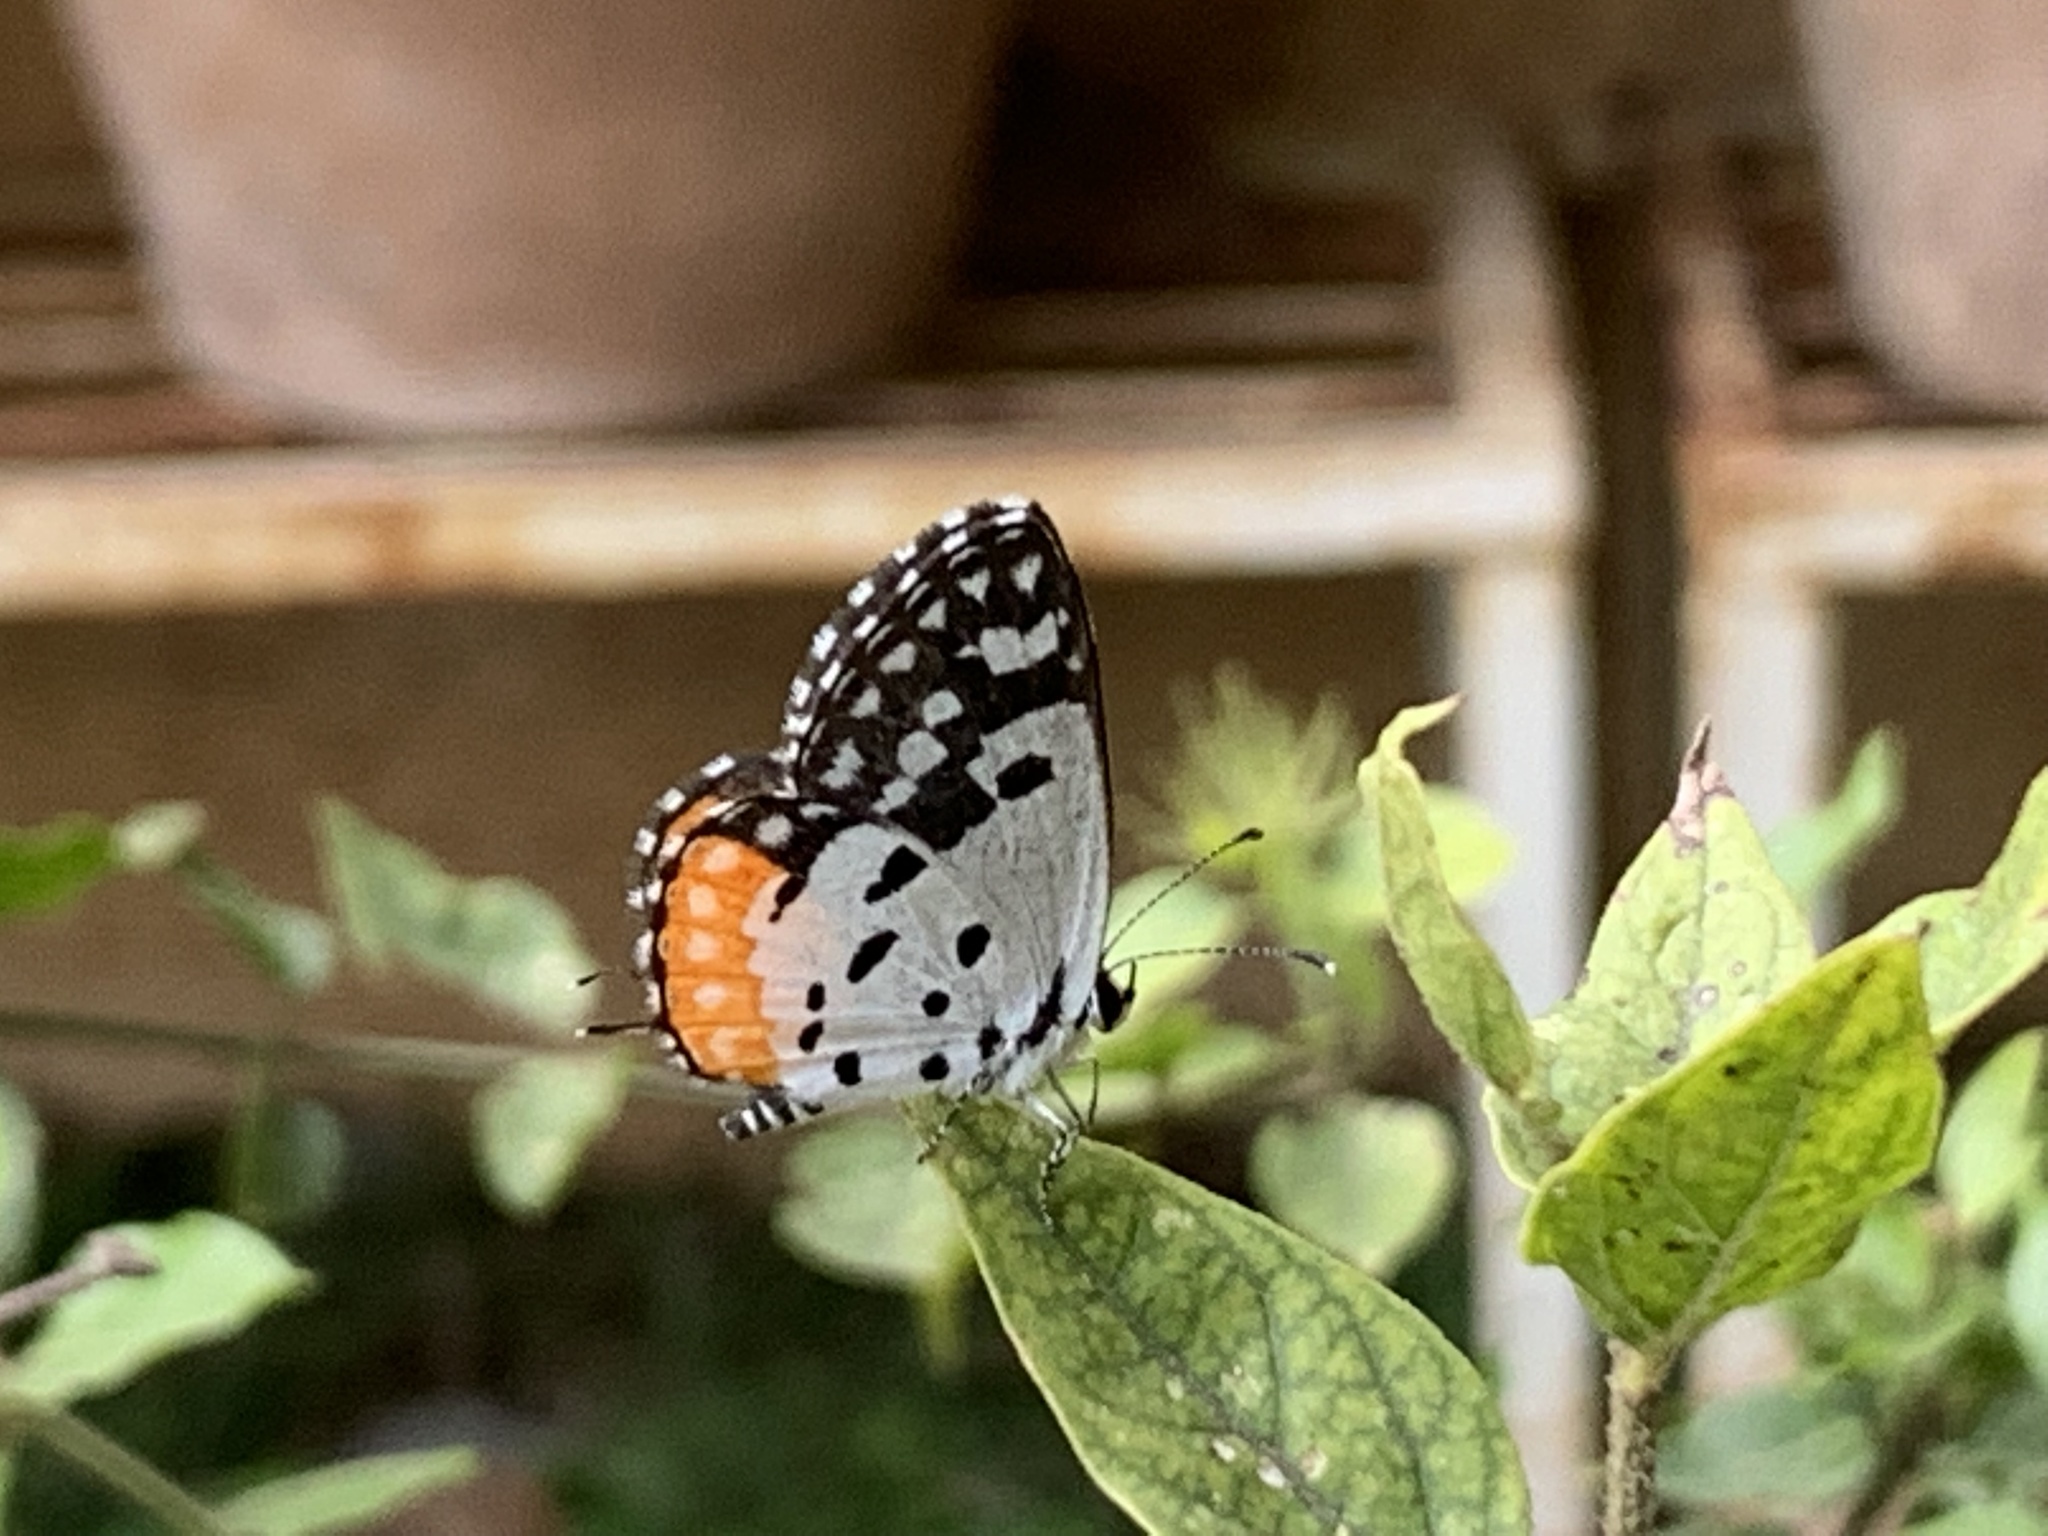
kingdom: Animalia
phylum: Arthropoda
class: Insecta
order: Lepidoptera
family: Lycaenidae
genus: Talicada
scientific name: Talicada nyseus
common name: Red pierrot
